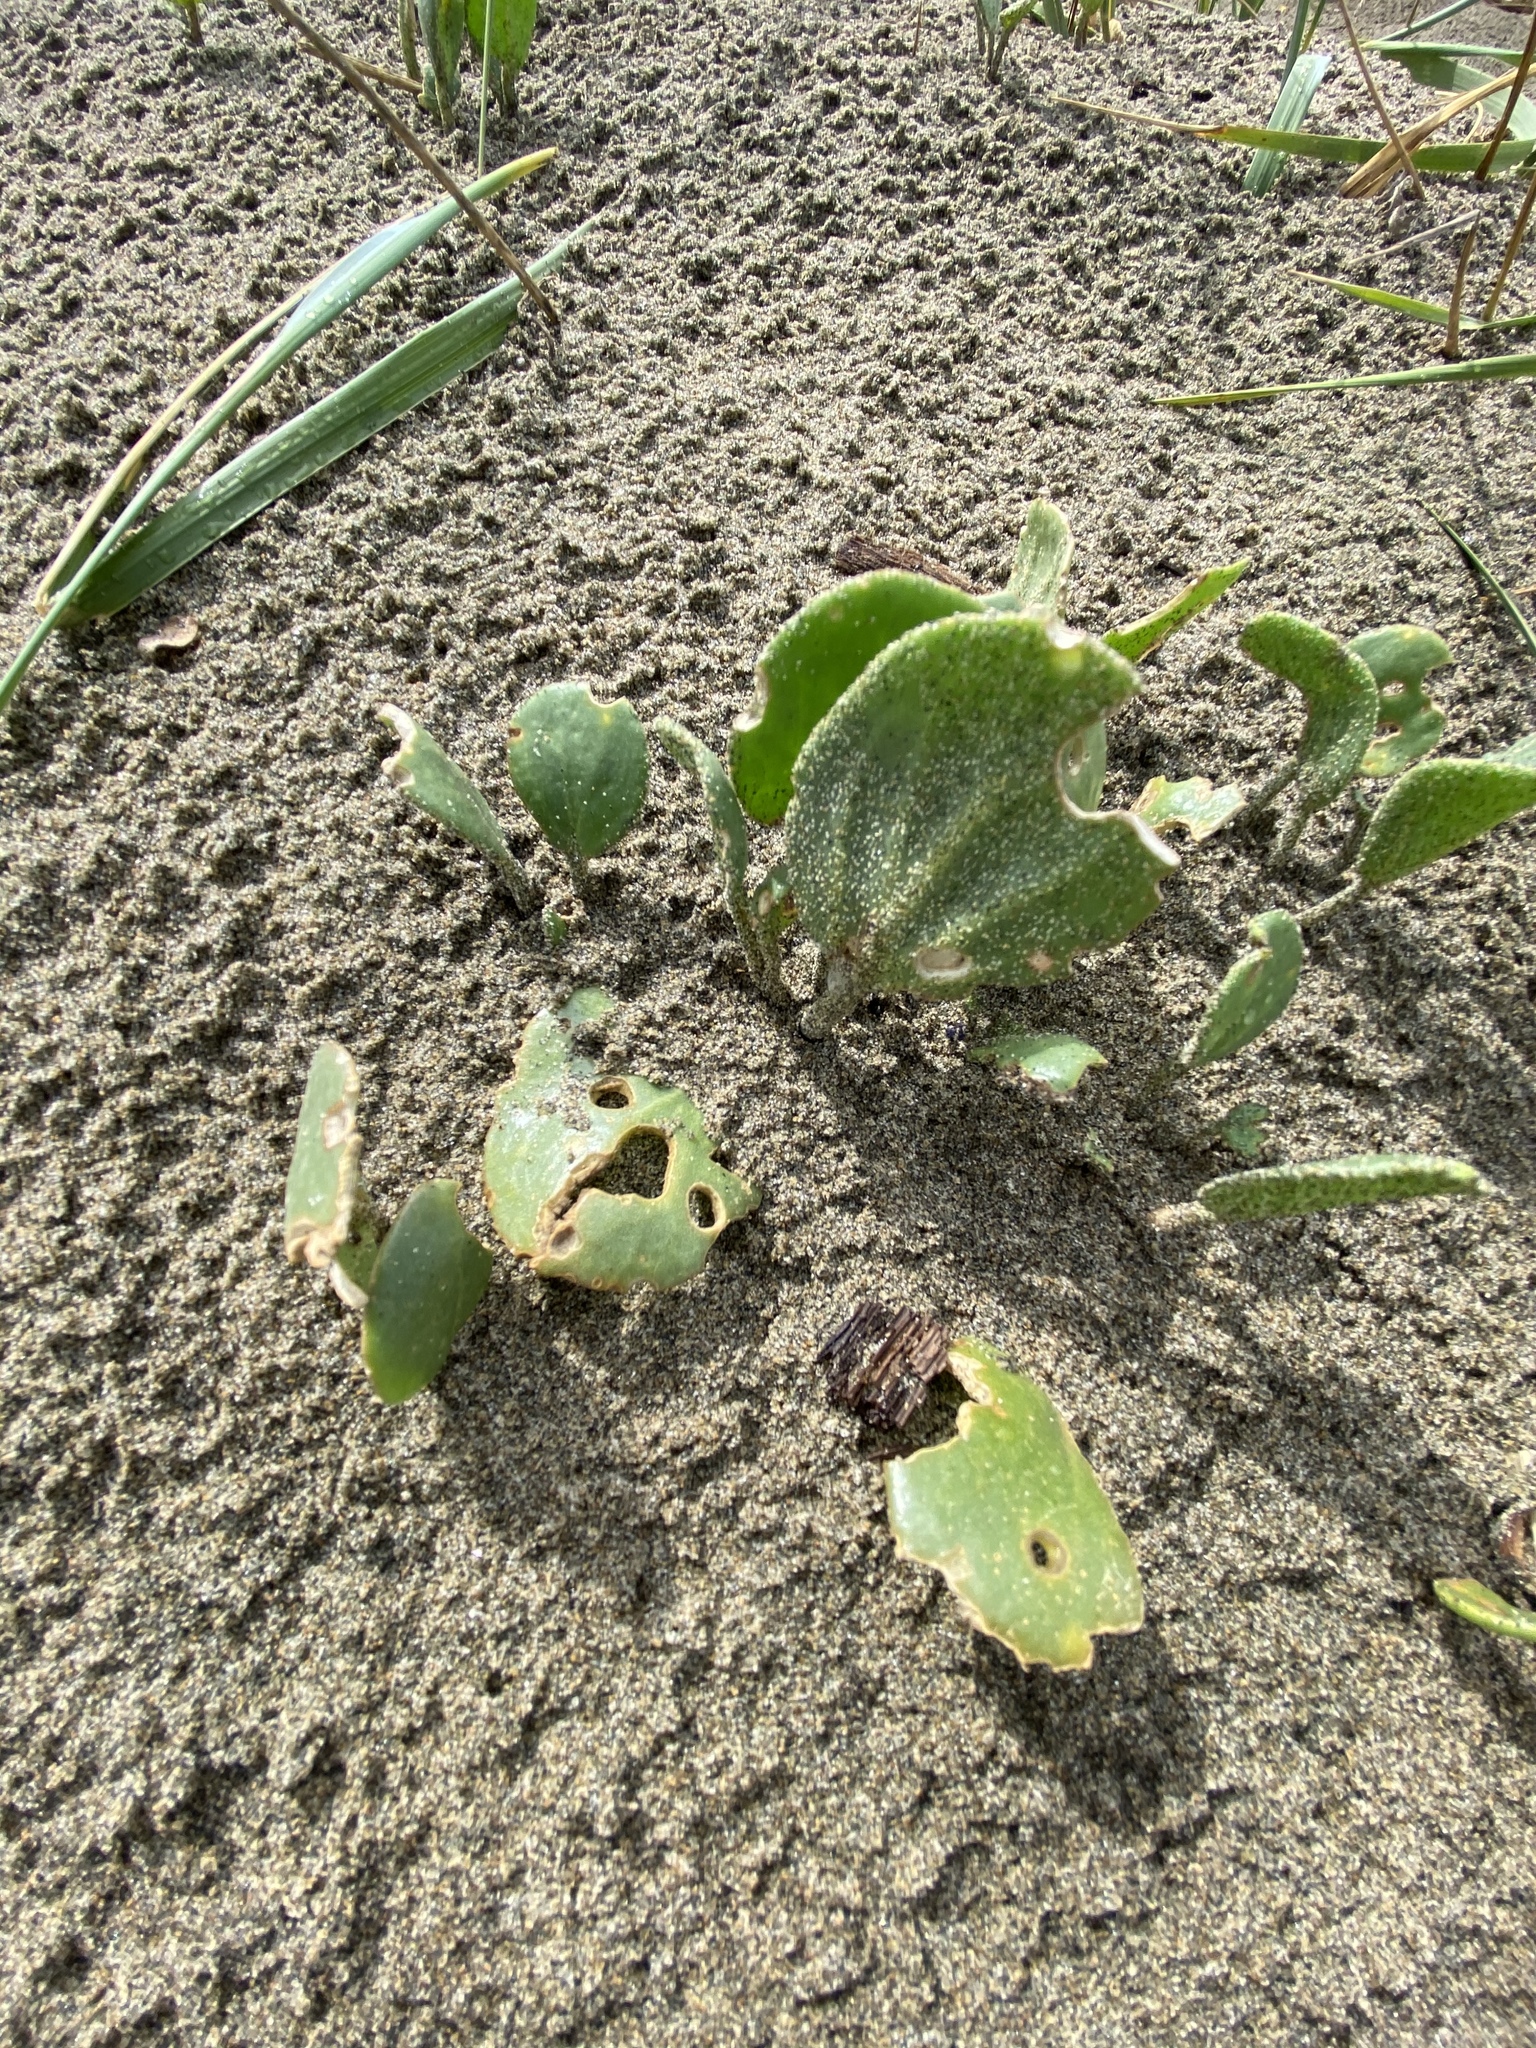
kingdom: Plantae
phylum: Tracheophyta
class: Magnoliopsida
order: Caryophyllales
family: Nyctaginaceae
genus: Abronia
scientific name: Abronia latifolia
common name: Yellow sand-verbena
